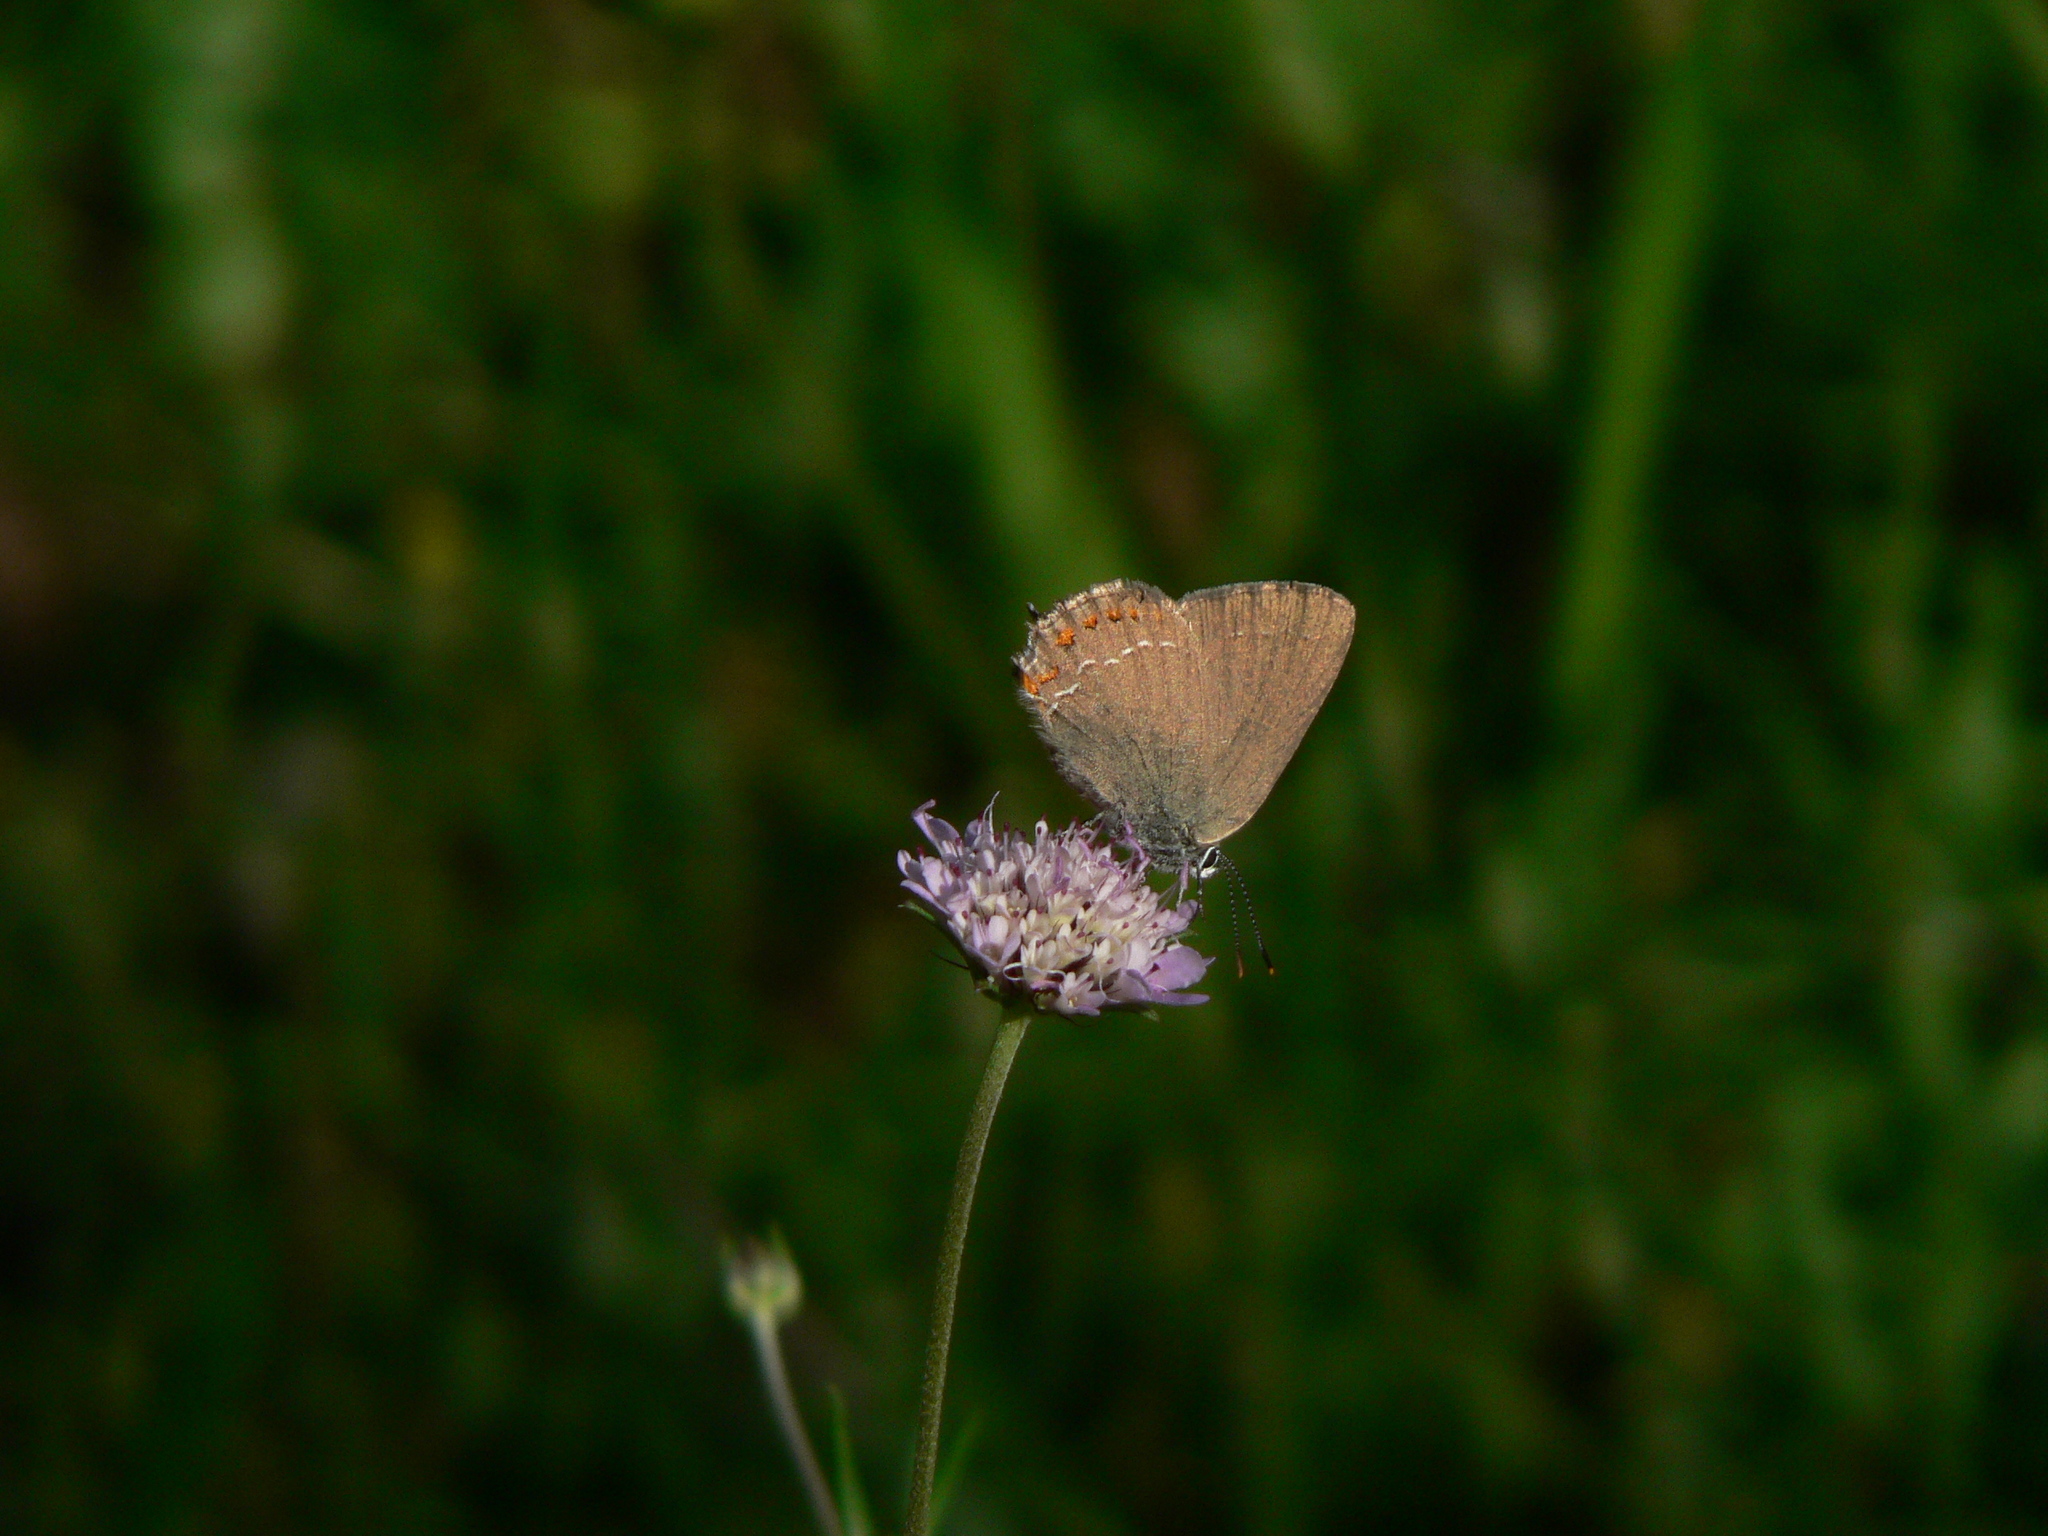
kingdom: Animalia
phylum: Arthropoda
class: Insecta
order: Lepidoptera
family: Lycaenidae
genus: Fixsenia
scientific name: Fixsenia esculi
